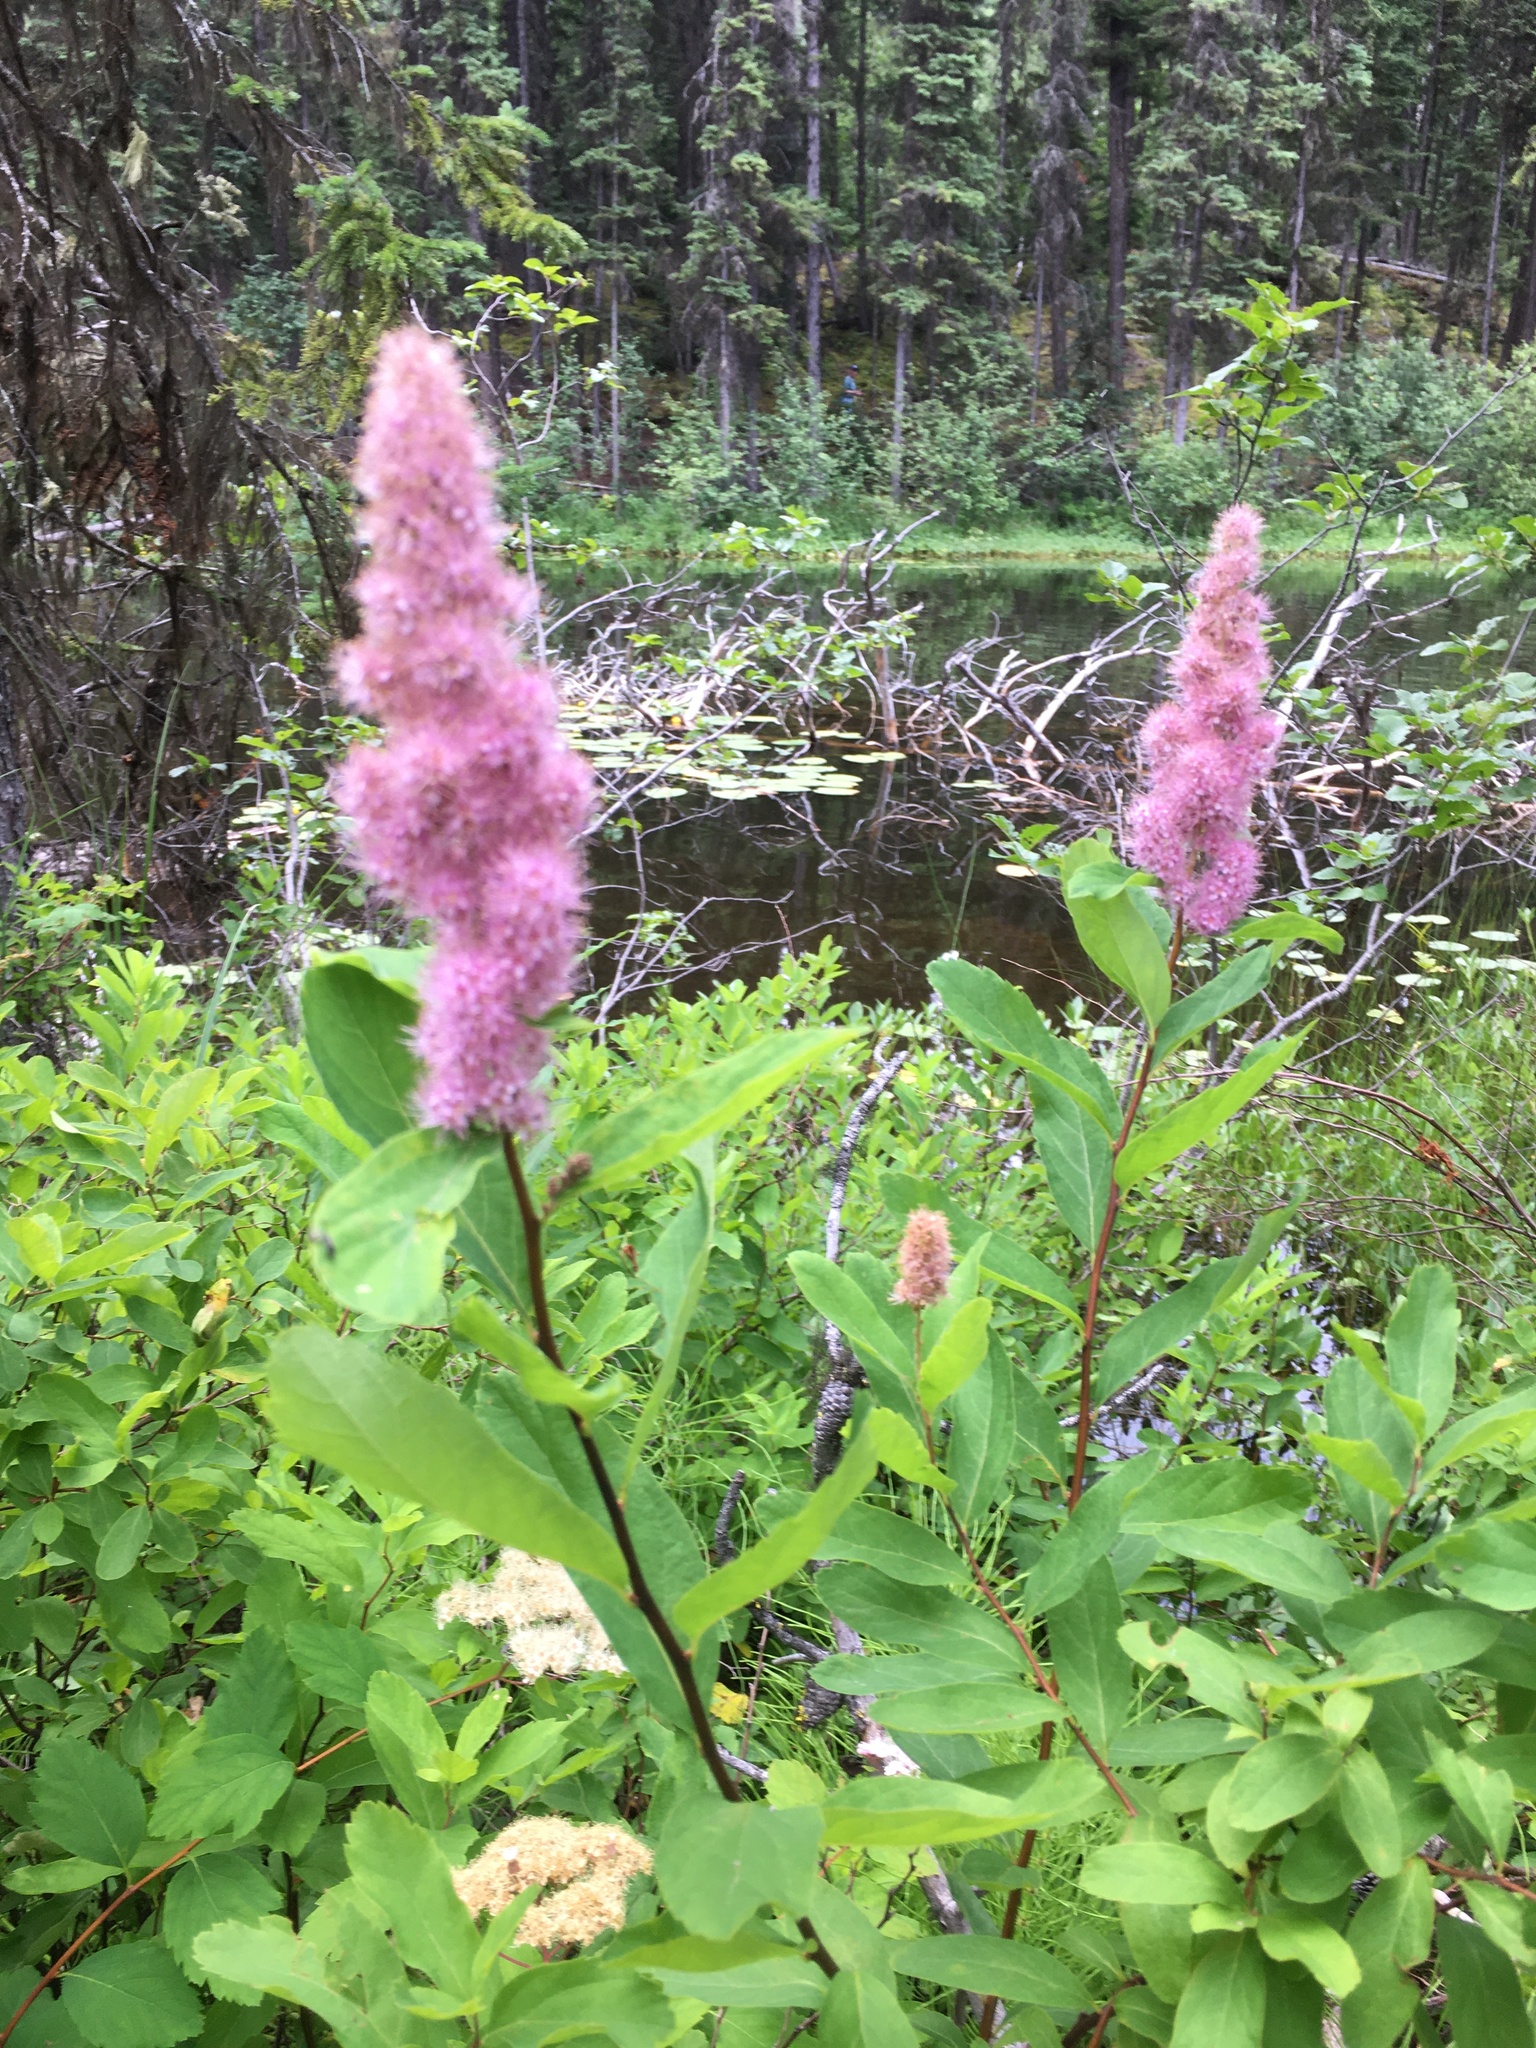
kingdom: Plantae
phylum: Tracheophyta
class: Magnoliopsida
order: Rosales
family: Rosaceae
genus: Spiraea
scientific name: Spiraea douglasii
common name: Steeplebush
